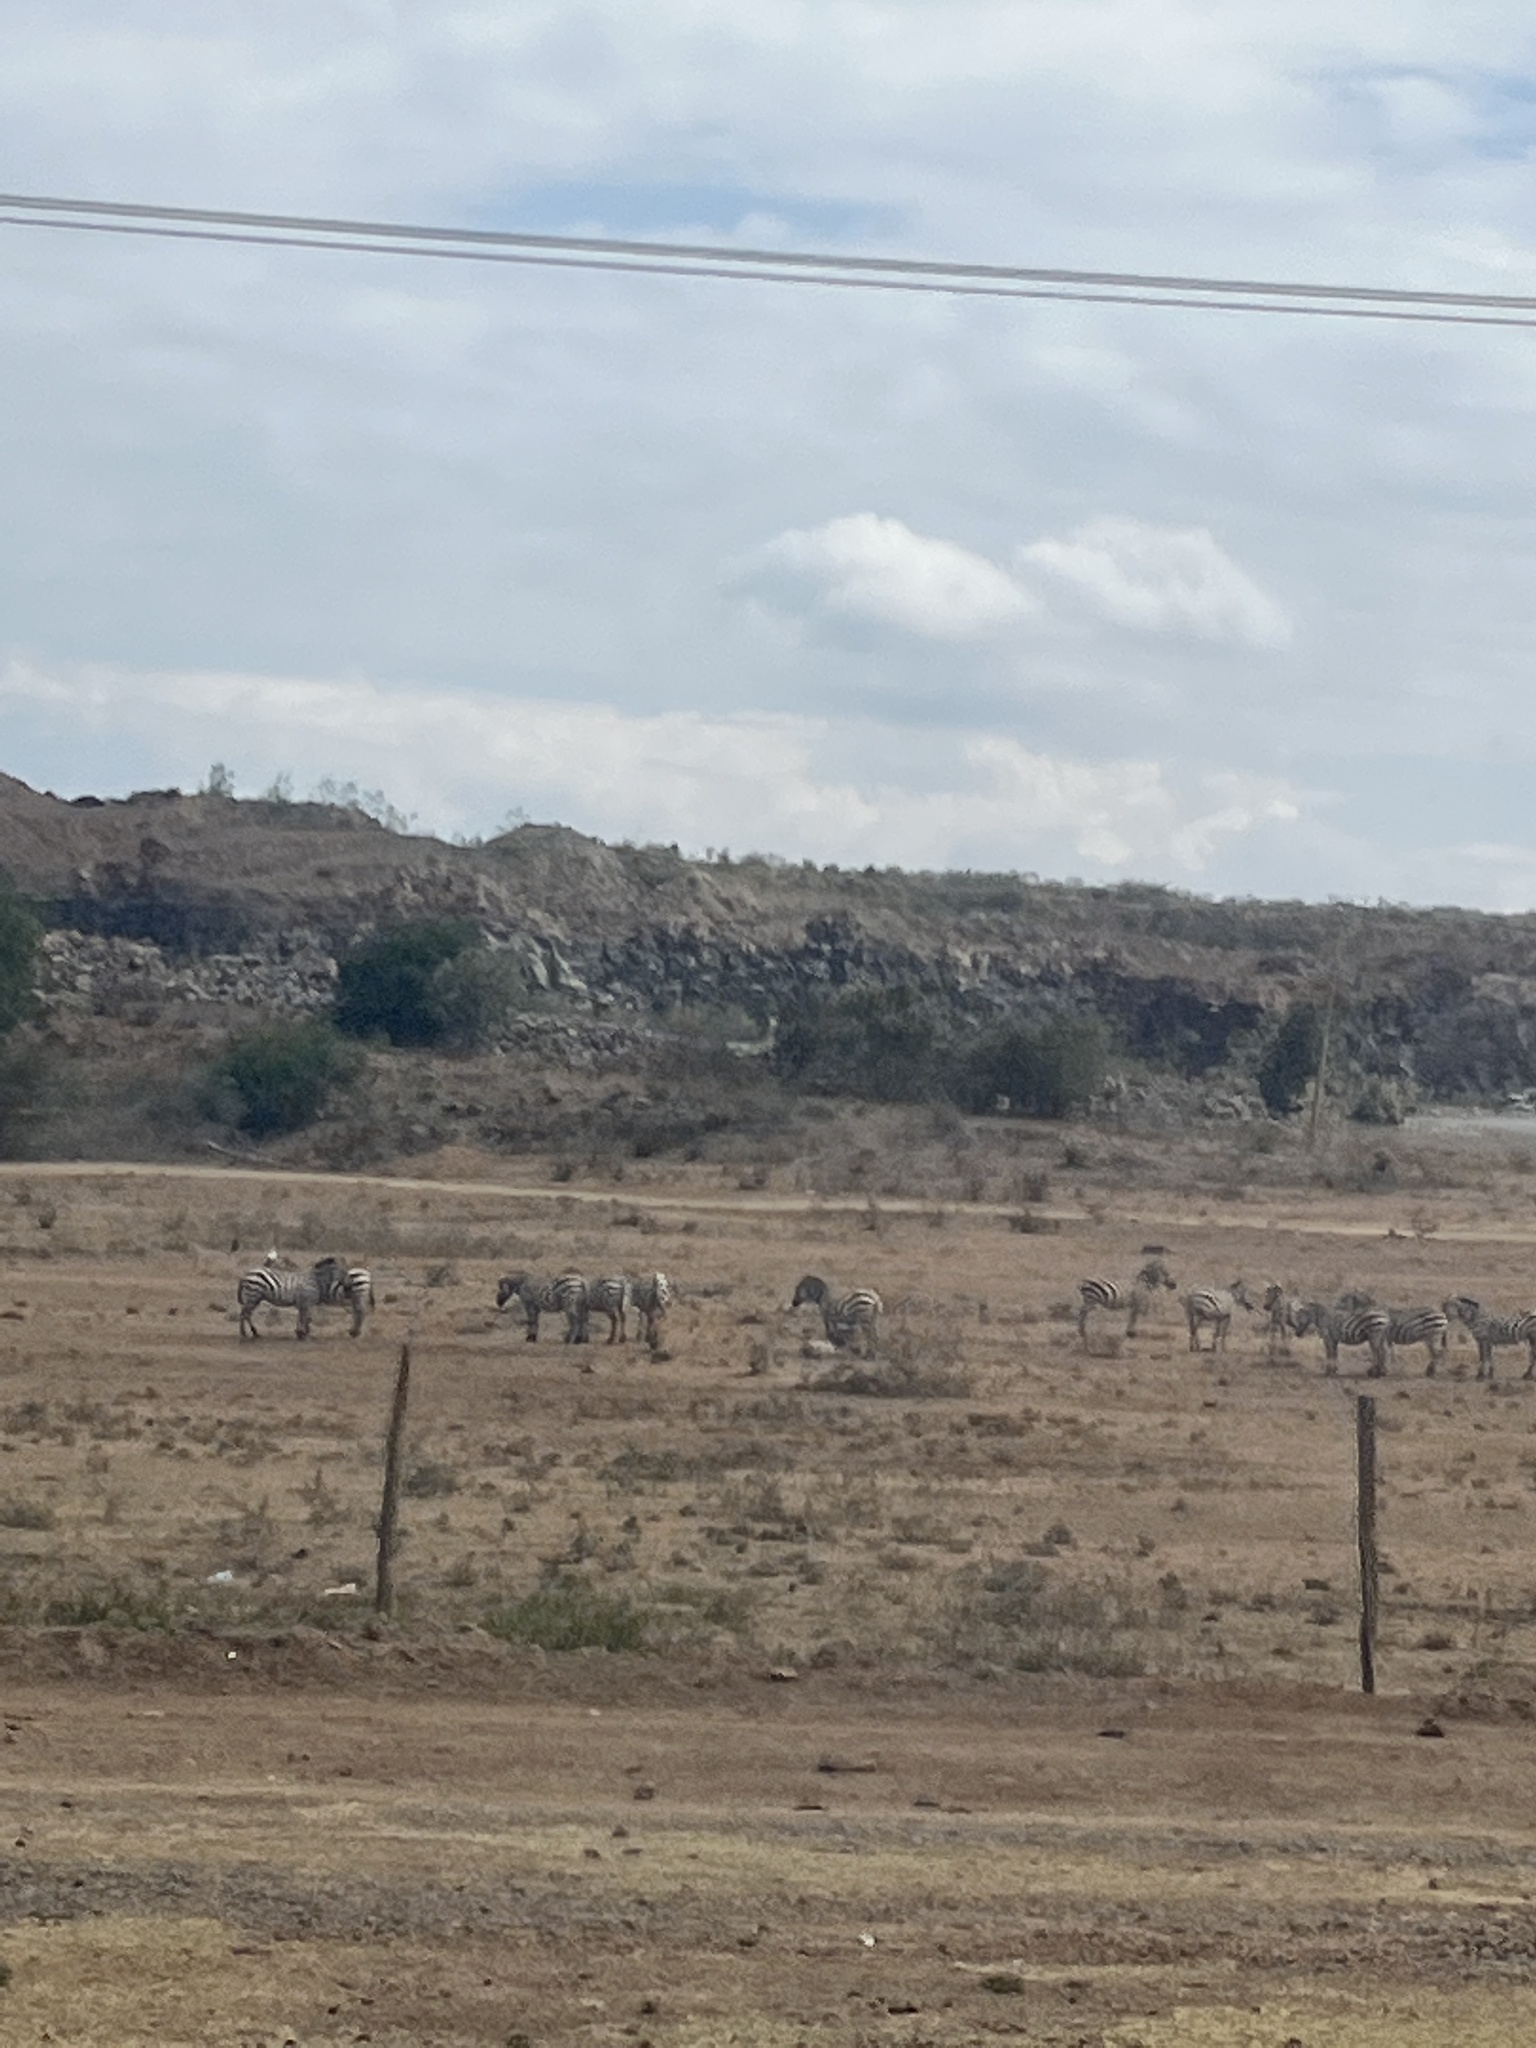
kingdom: Animalia
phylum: Chordata
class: Mammalia
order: Perissodactyla
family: Equidae
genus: Equus
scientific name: Equus quagga
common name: Plains zebra
